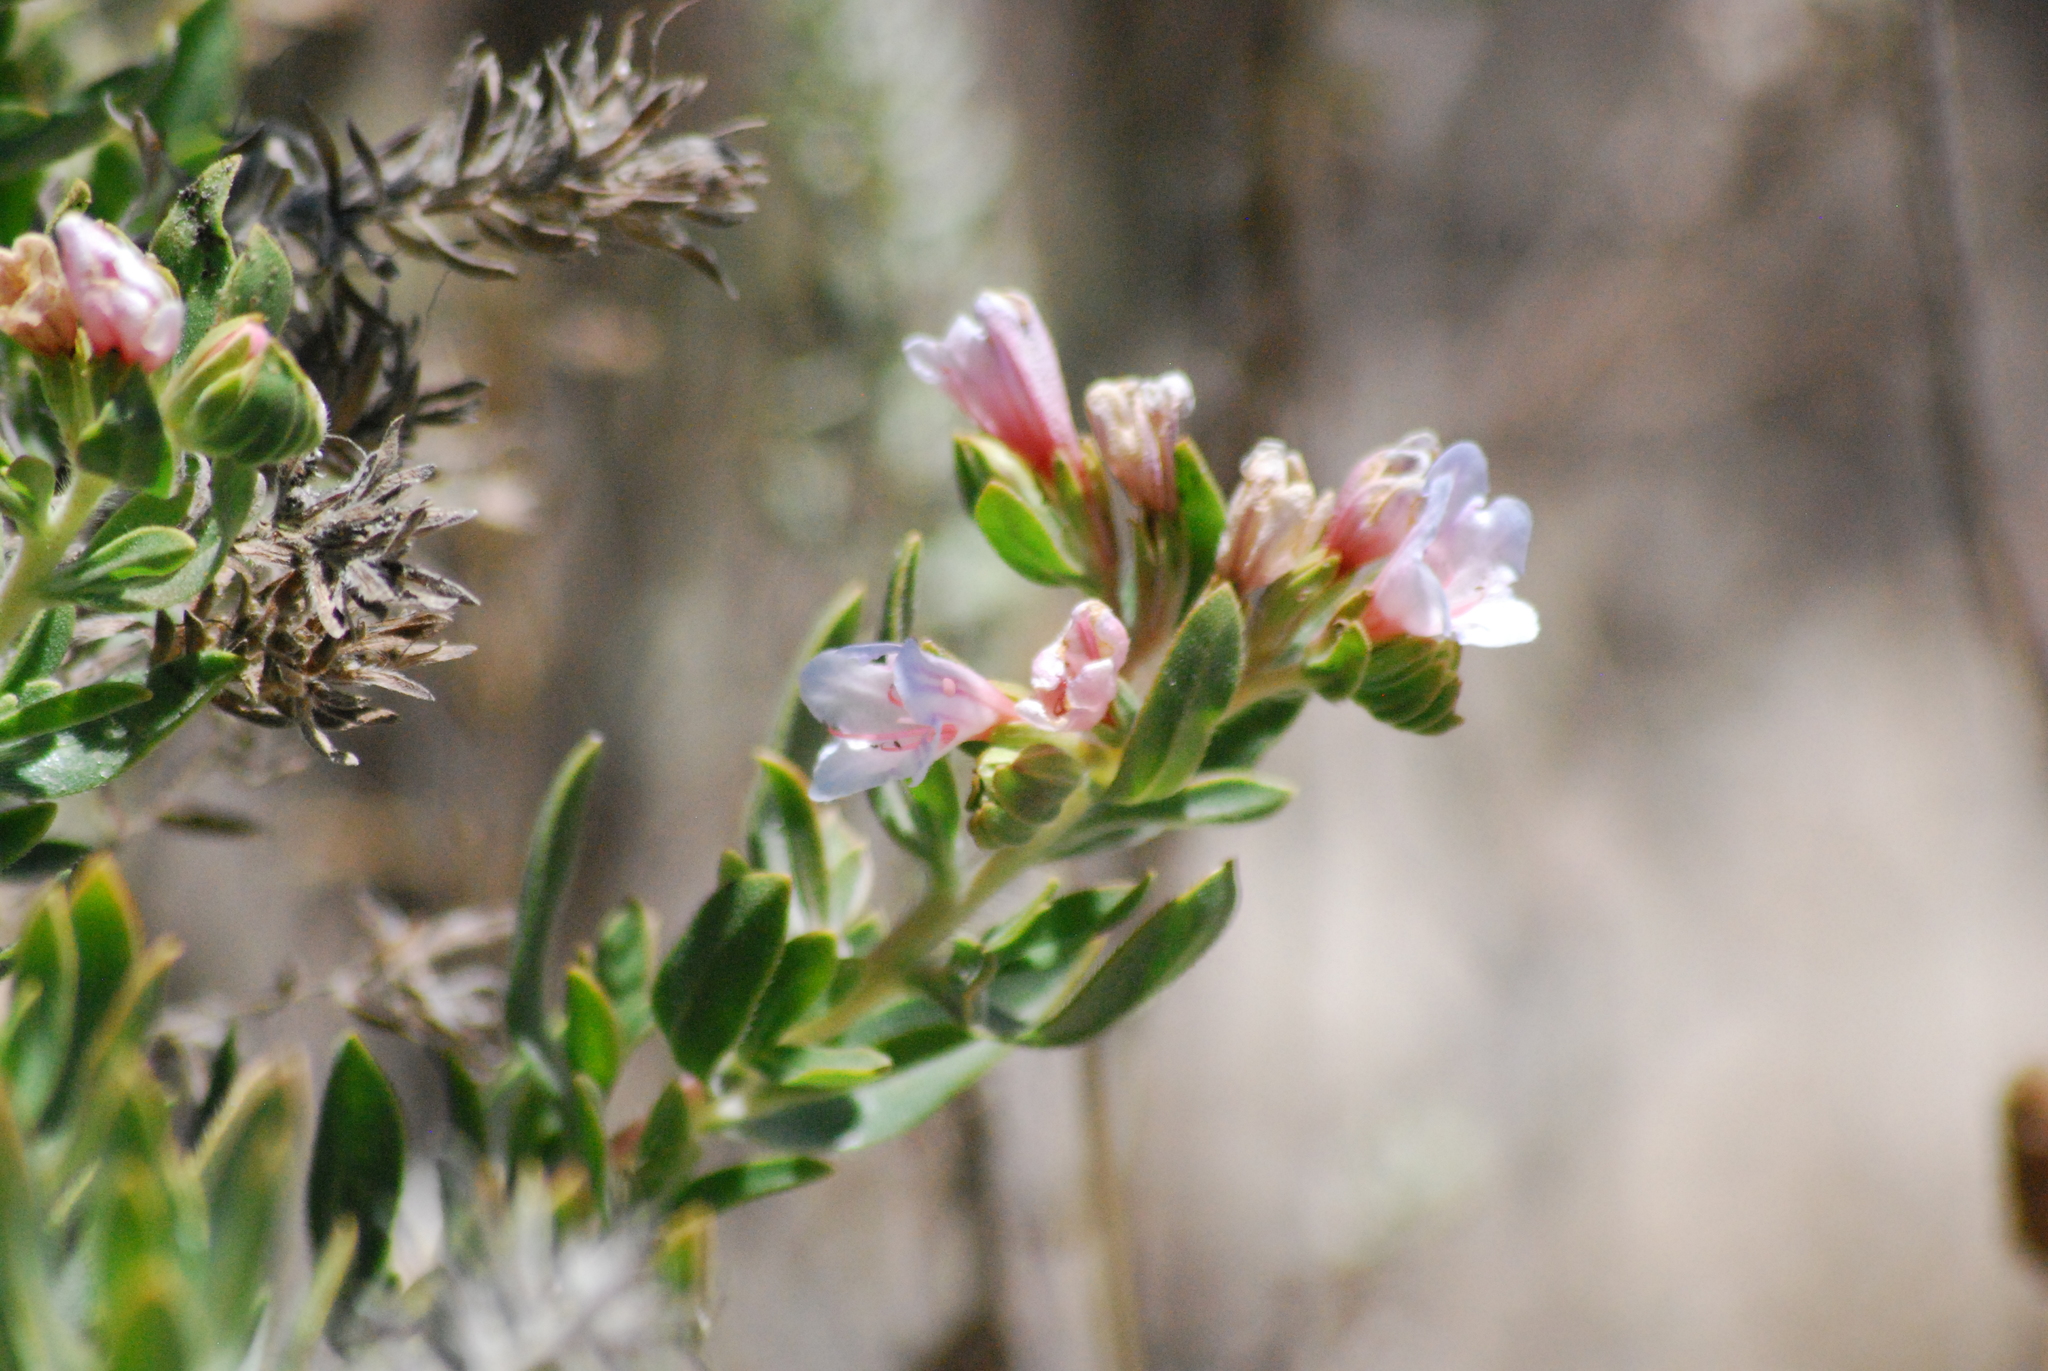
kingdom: Plantae
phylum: Tracheophyta
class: Magnoliopsida
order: Boraginales
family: Boraginaceae
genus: Lobostemon
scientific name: Lobostemon fruticosus
